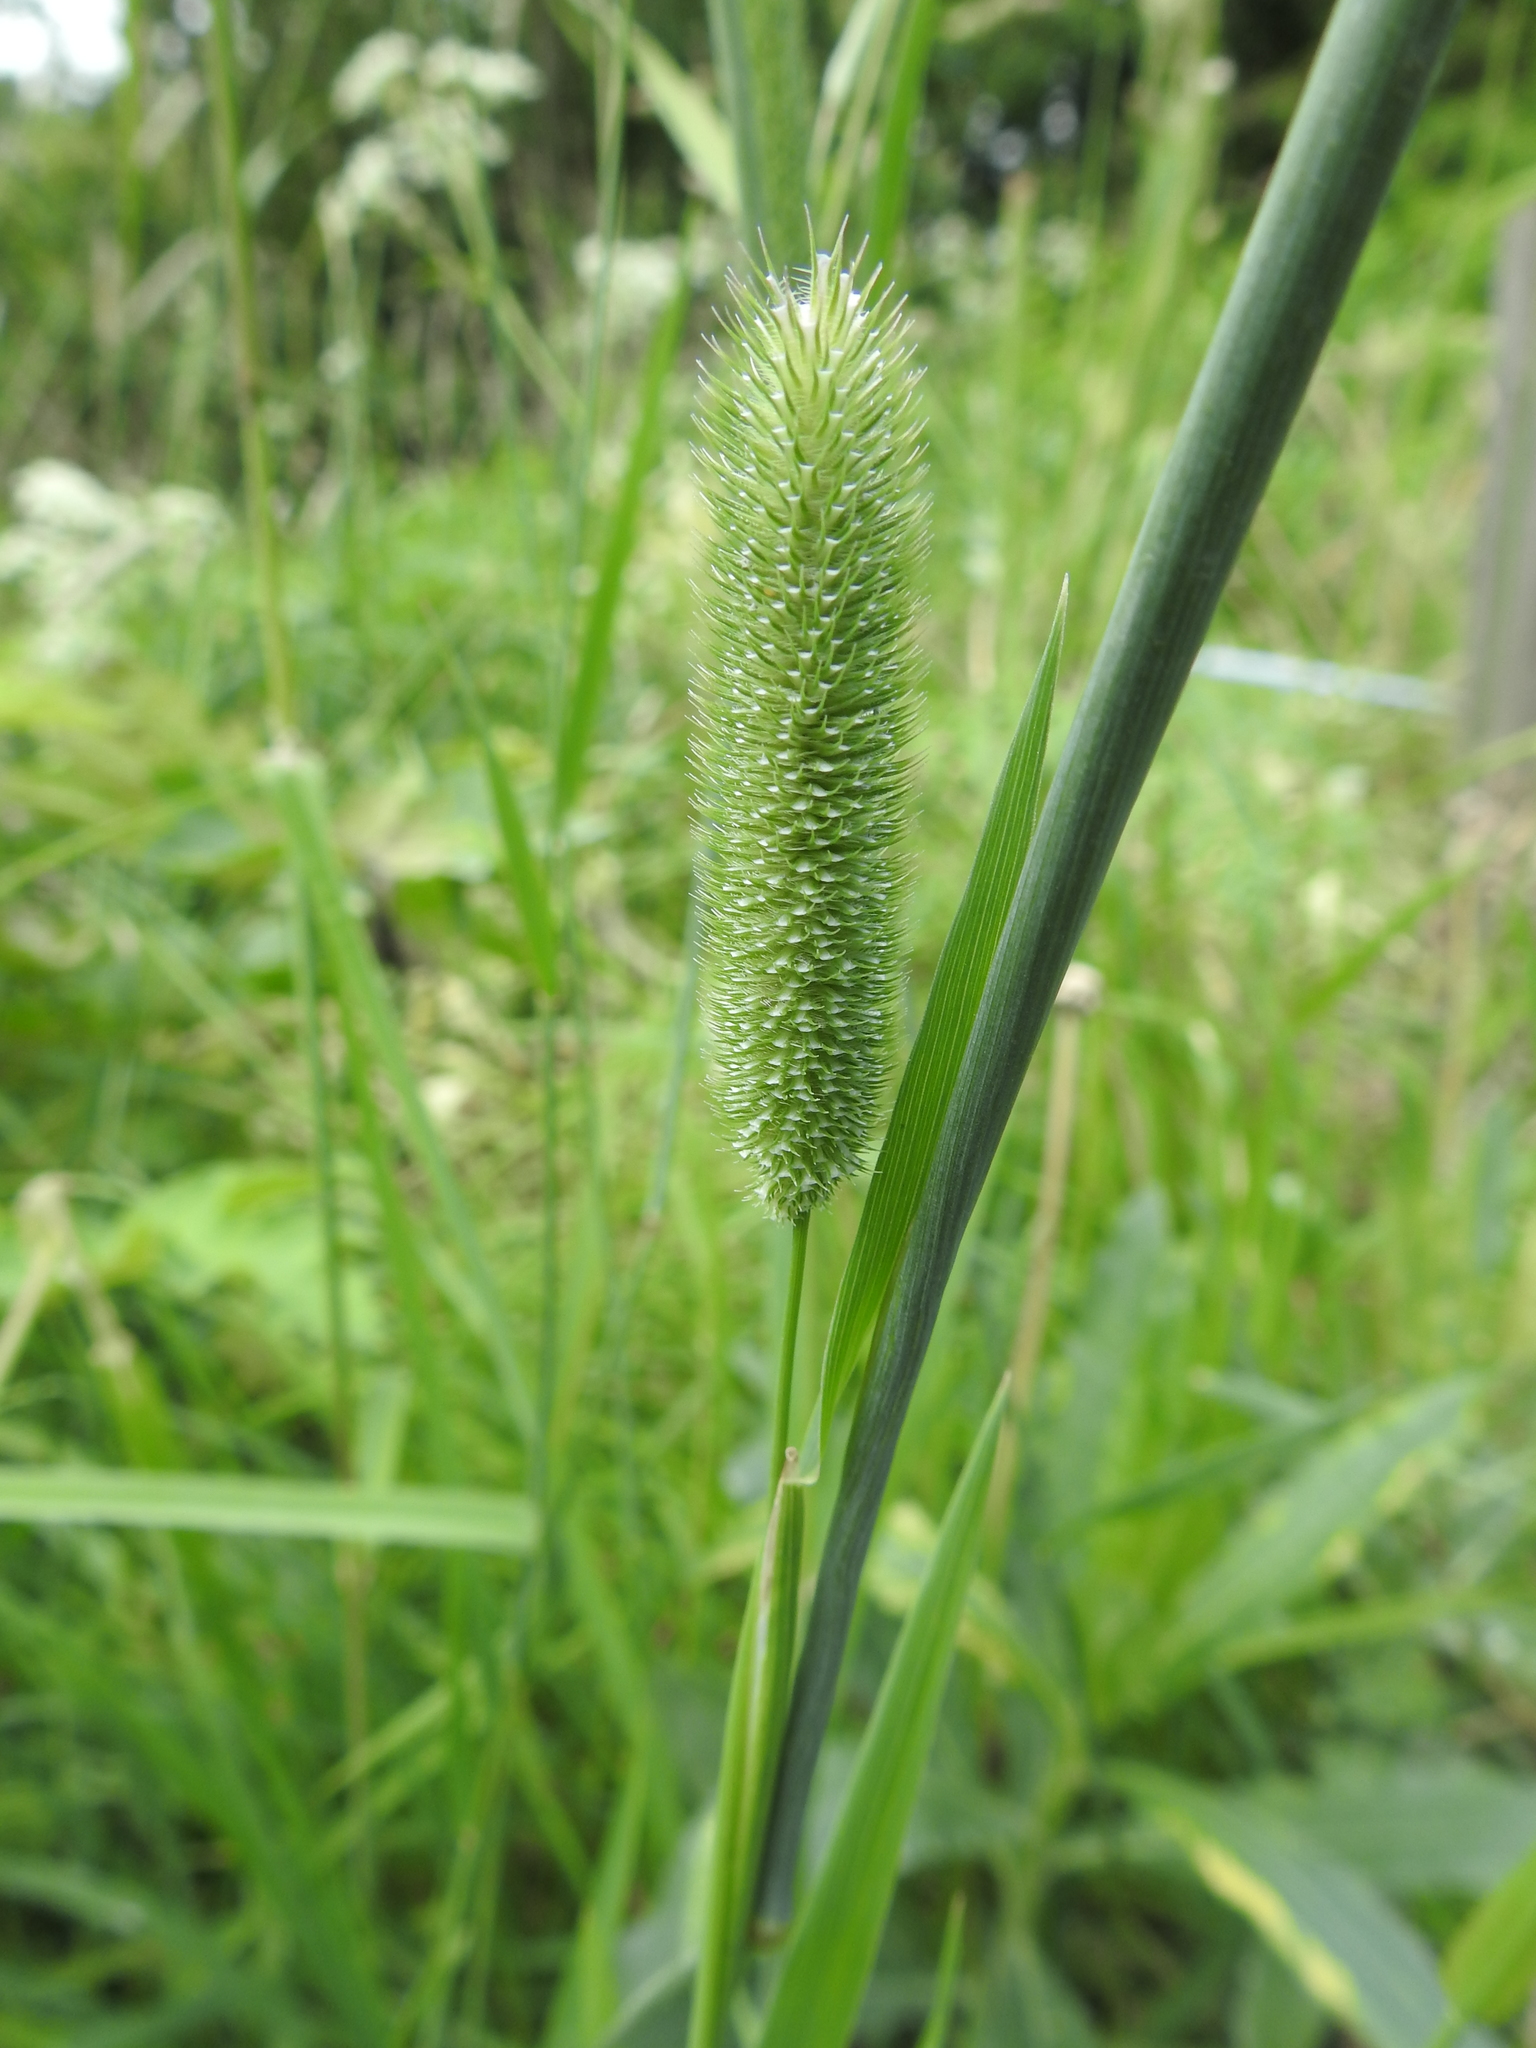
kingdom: Plantae
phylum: Tracheophyta
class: Liliopsida
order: Poales
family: Poaceae
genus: Phleum
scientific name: Phleum pratense
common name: Timothy grass
